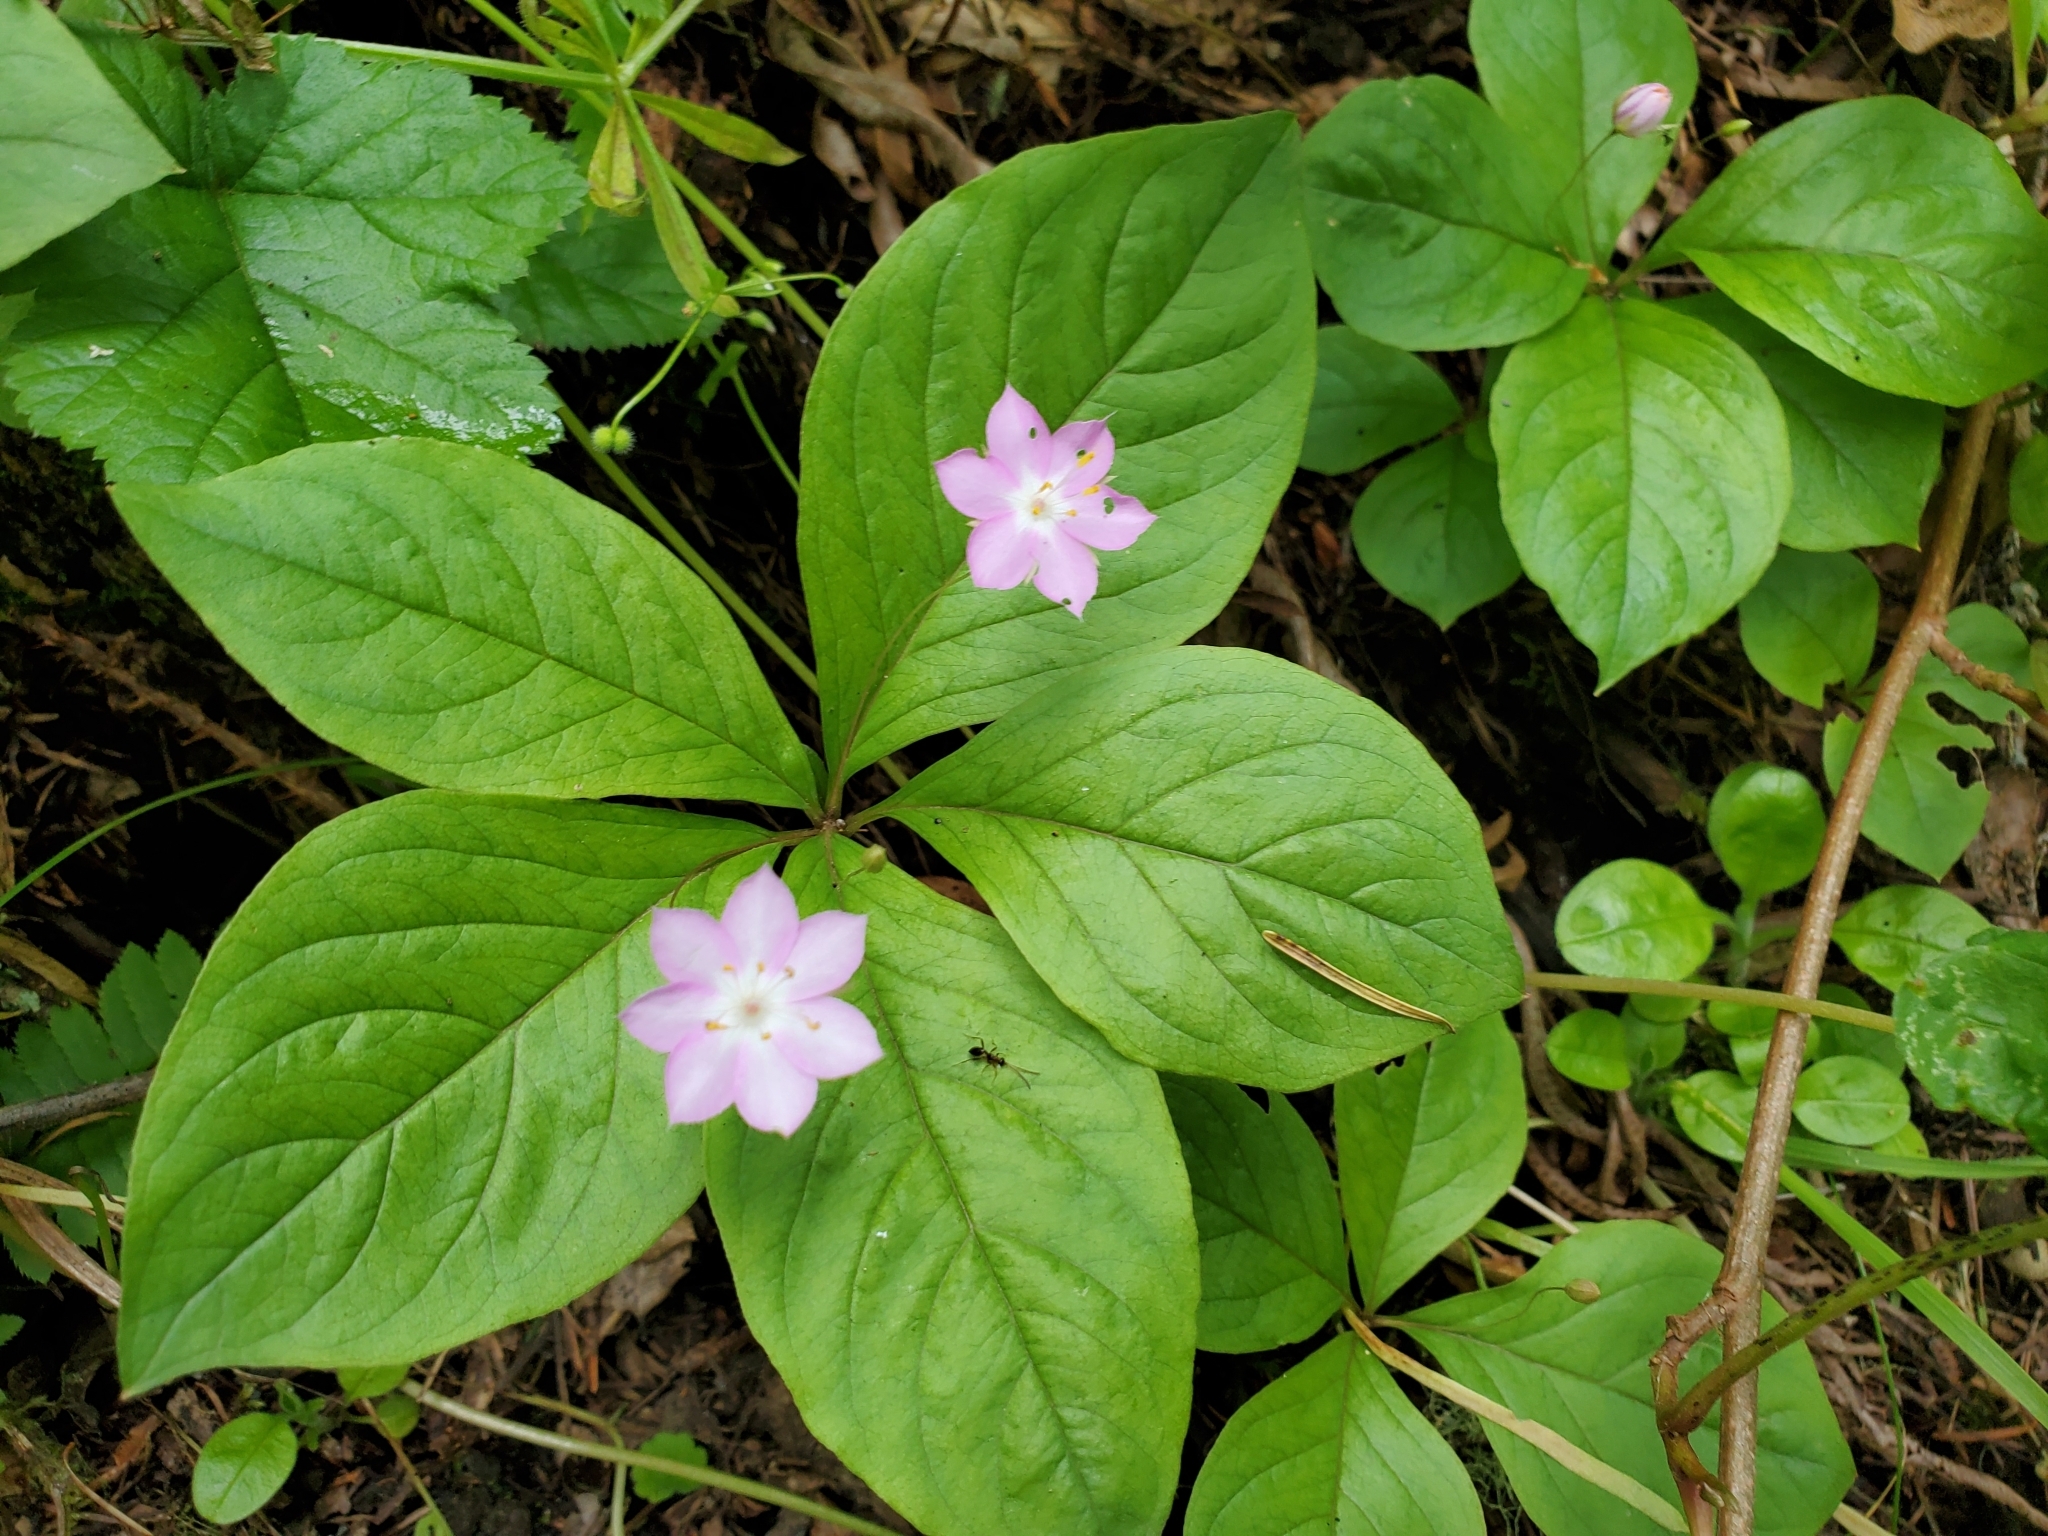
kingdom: Plantae
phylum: Tracheophyta
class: Magnoliopsida
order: Ericales
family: Primulaceae
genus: Lysimachia
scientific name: Lysimachia latifolia
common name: Pacific starflower
